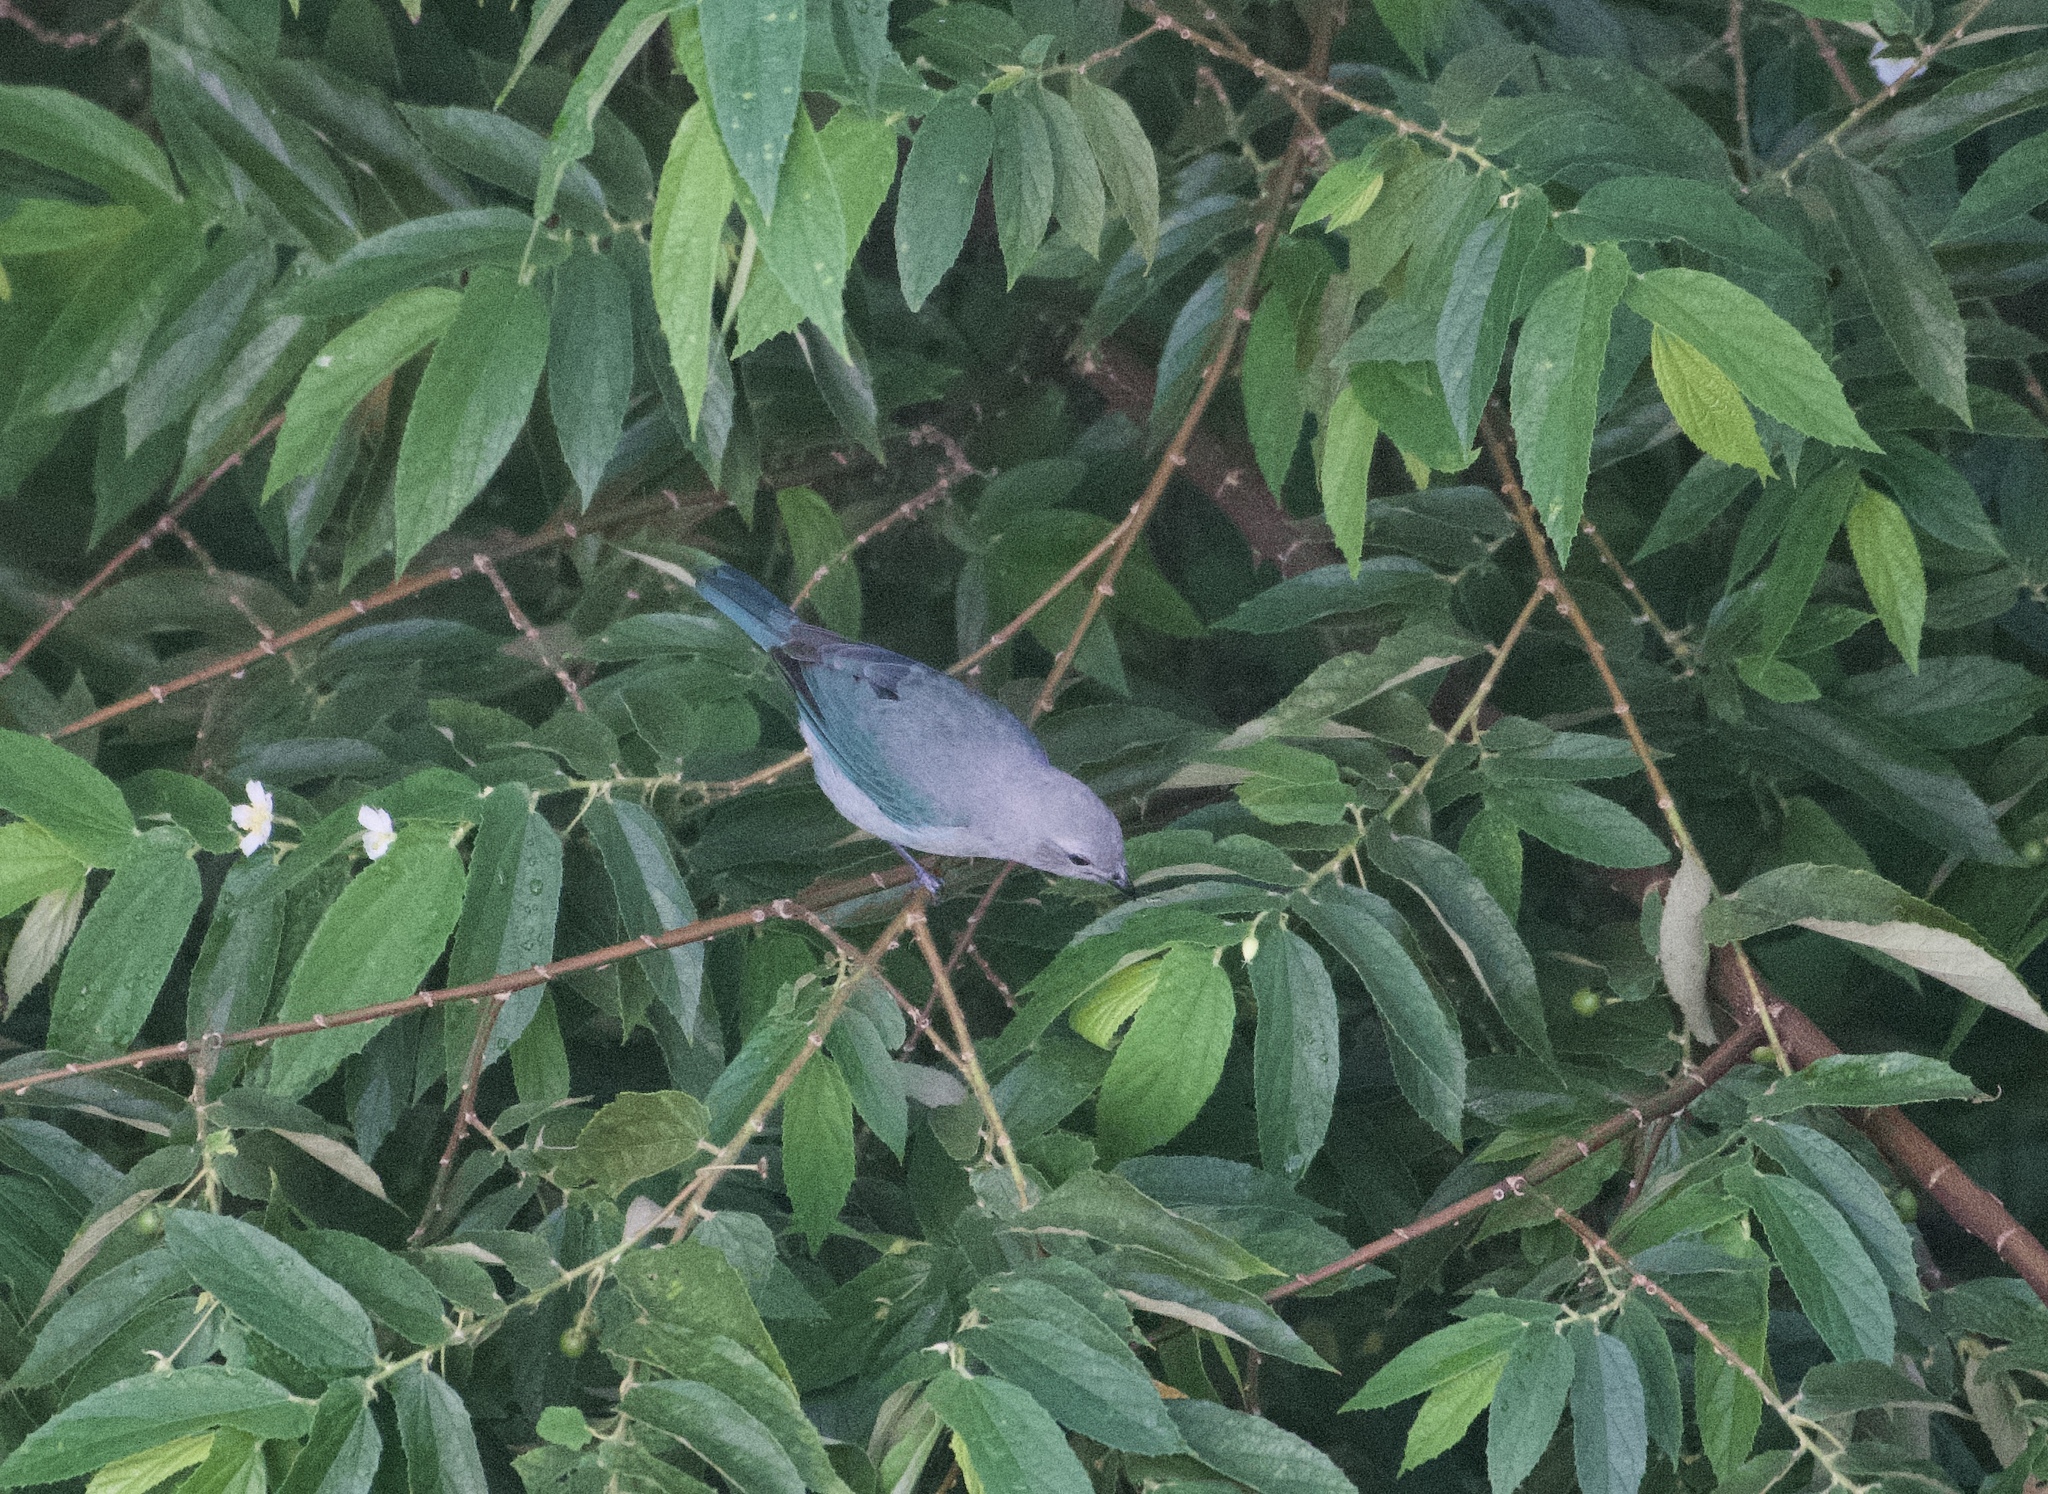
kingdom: Animalia
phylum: Chordata
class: Aves
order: Passeriformes
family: Thraupidae
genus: Thraupis
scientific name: Thraupis episcopus
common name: Blue-grey tanager
